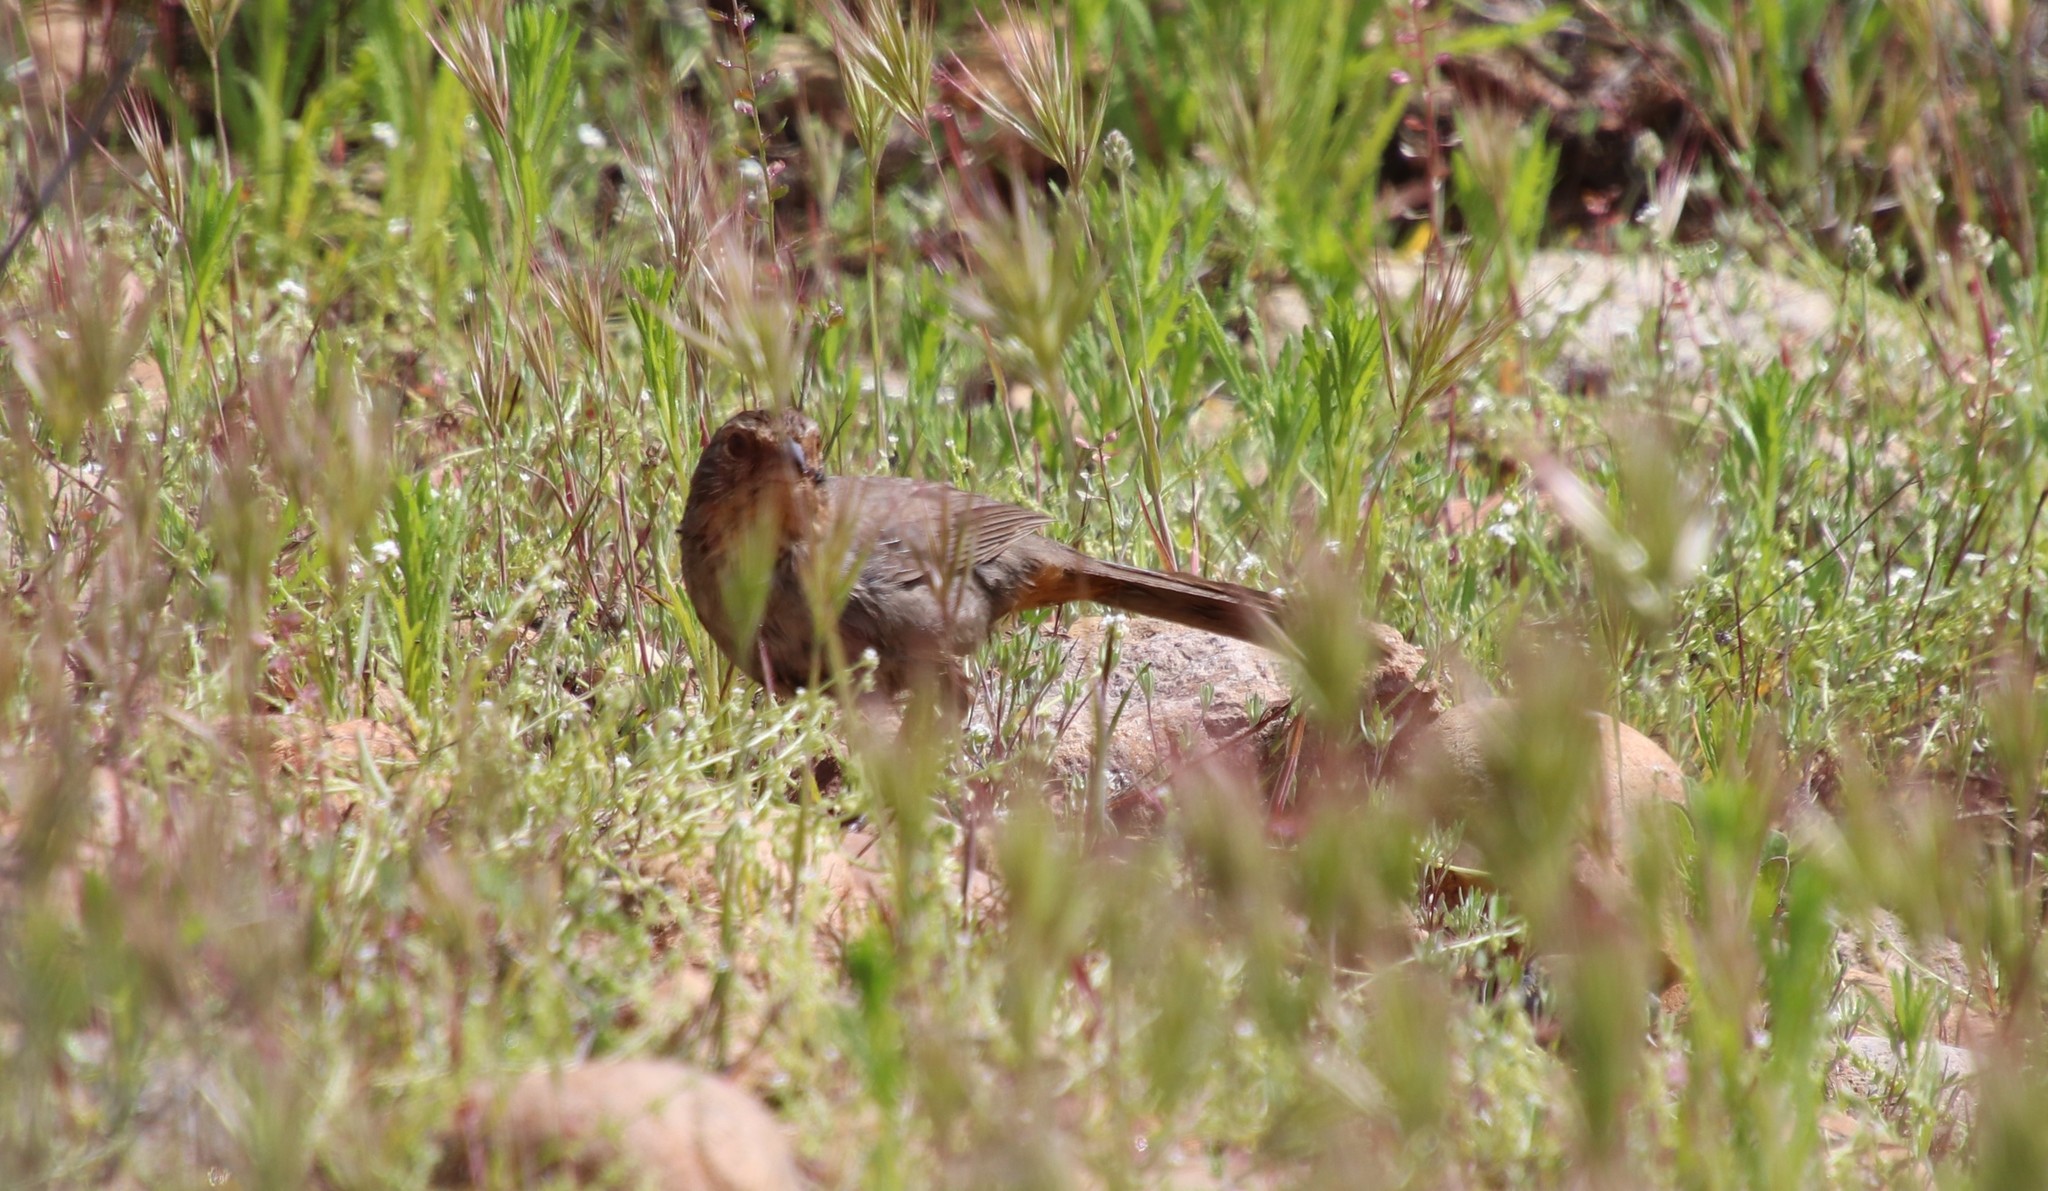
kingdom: Animalia
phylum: Chordata
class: Aves
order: Passeriformes
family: Passerellidae
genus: Melozone
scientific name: Melozone crissalis
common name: California towhee
